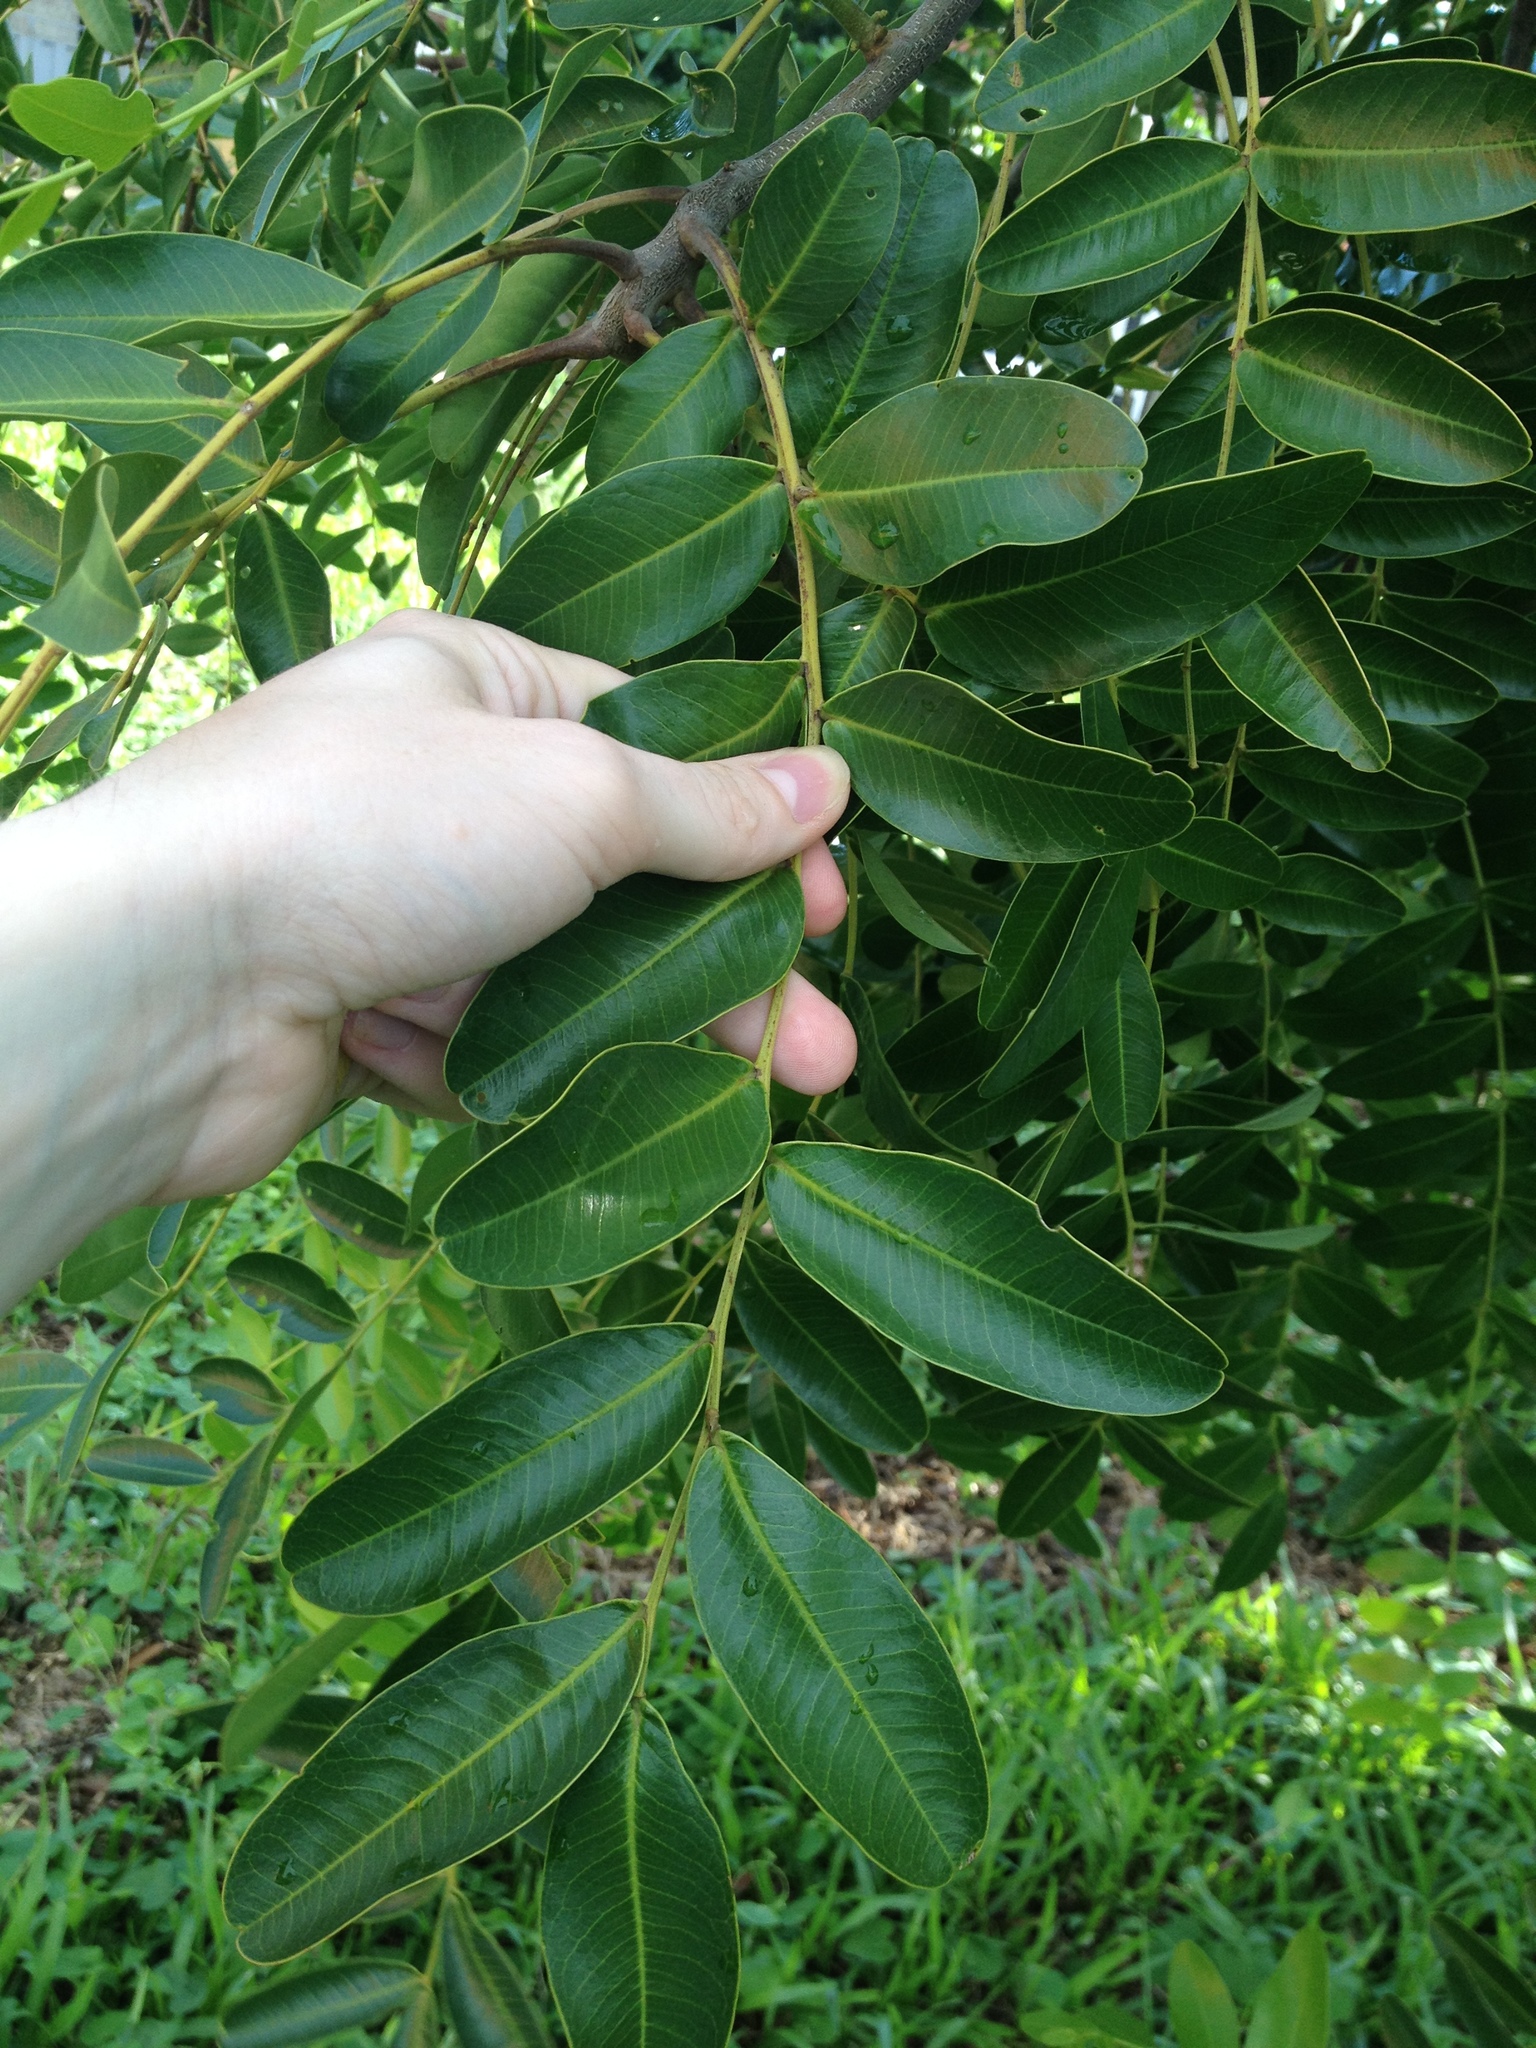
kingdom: Plantae
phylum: Tracheophyta
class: Magnoliopsida
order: Fabales
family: Fabaceae
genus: Pterogyne
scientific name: Pterogyne nitens
